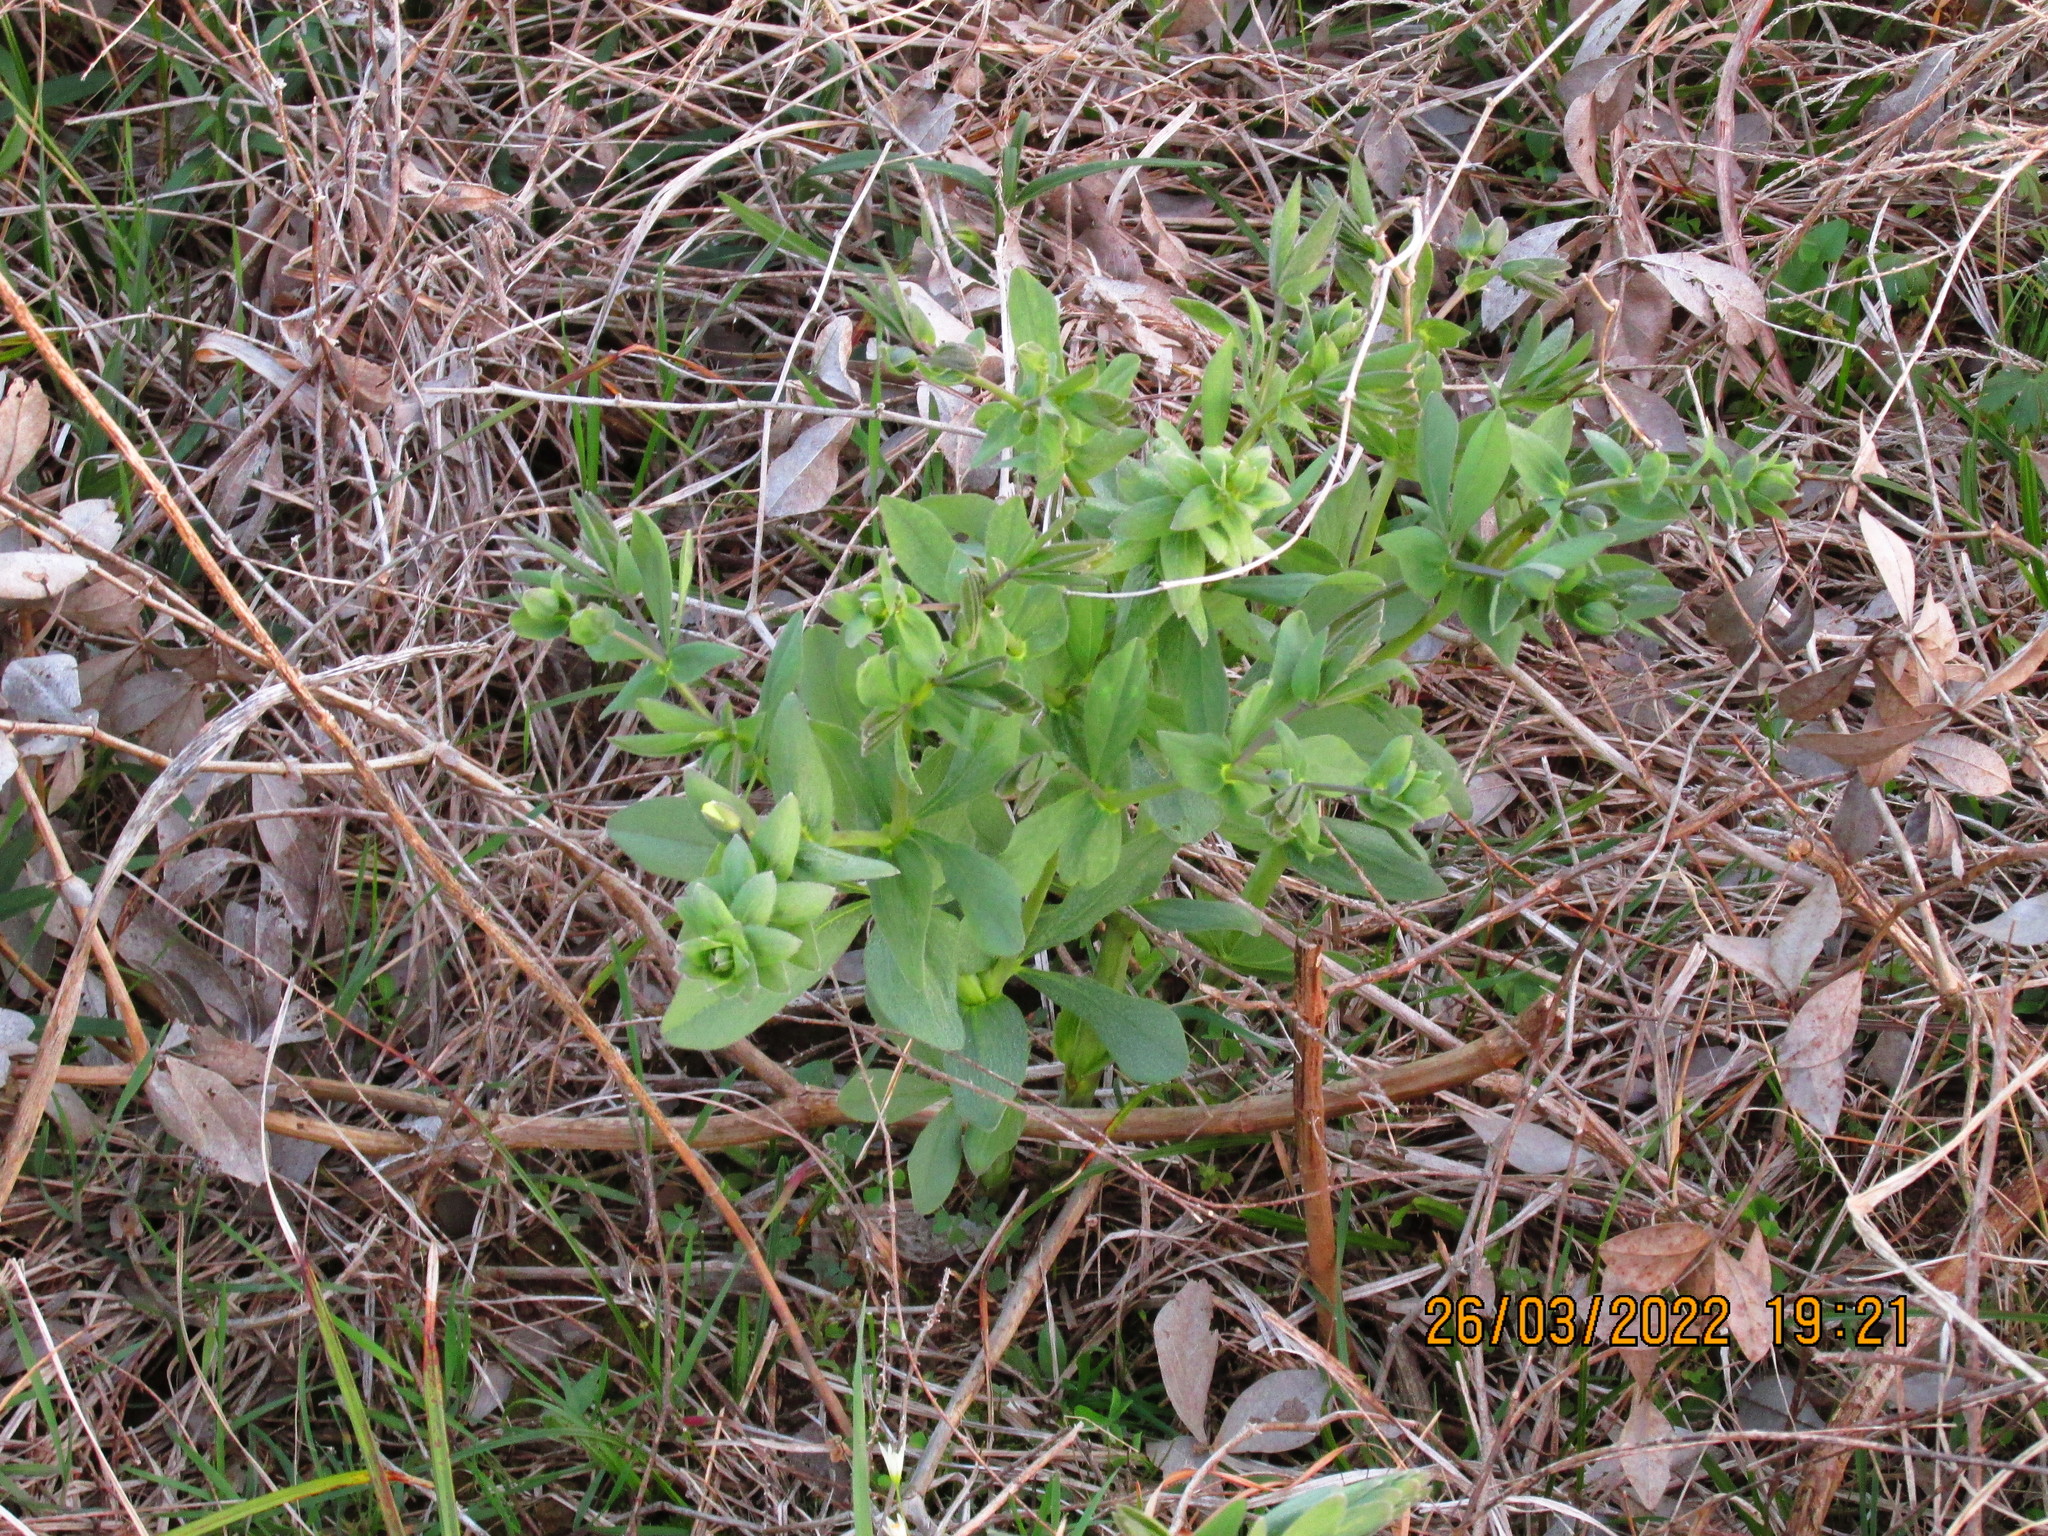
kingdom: Plantae
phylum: Tracheophyta
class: Magnoliopsida
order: Fabales
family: Fabaceae
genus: Baptisia
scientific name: Baptisia bracteata
